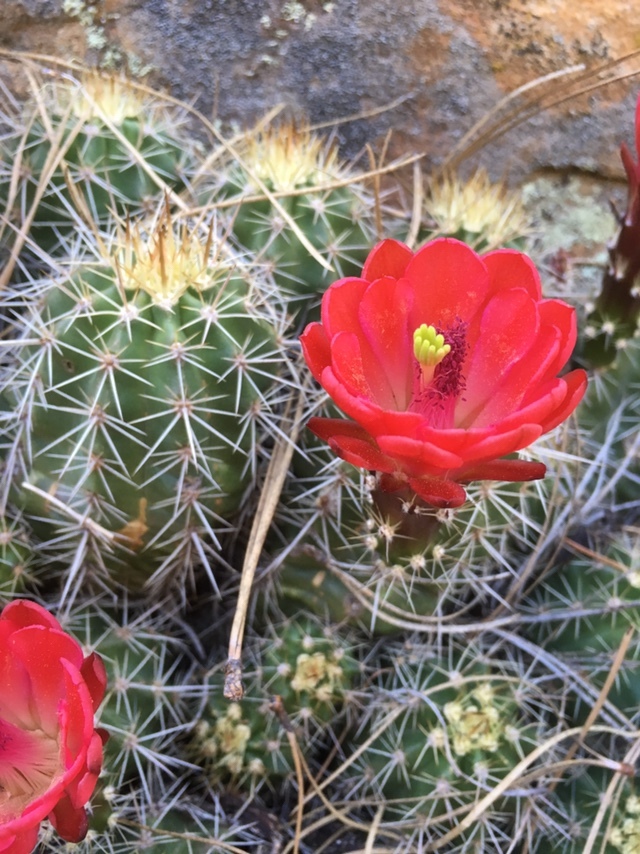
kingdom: Plantae
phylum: Tracheophyta
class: Magnoliopsida
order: Caryophyllales
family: Cactaceae
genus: Echinocereus
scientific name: Echinocereus bakeri
